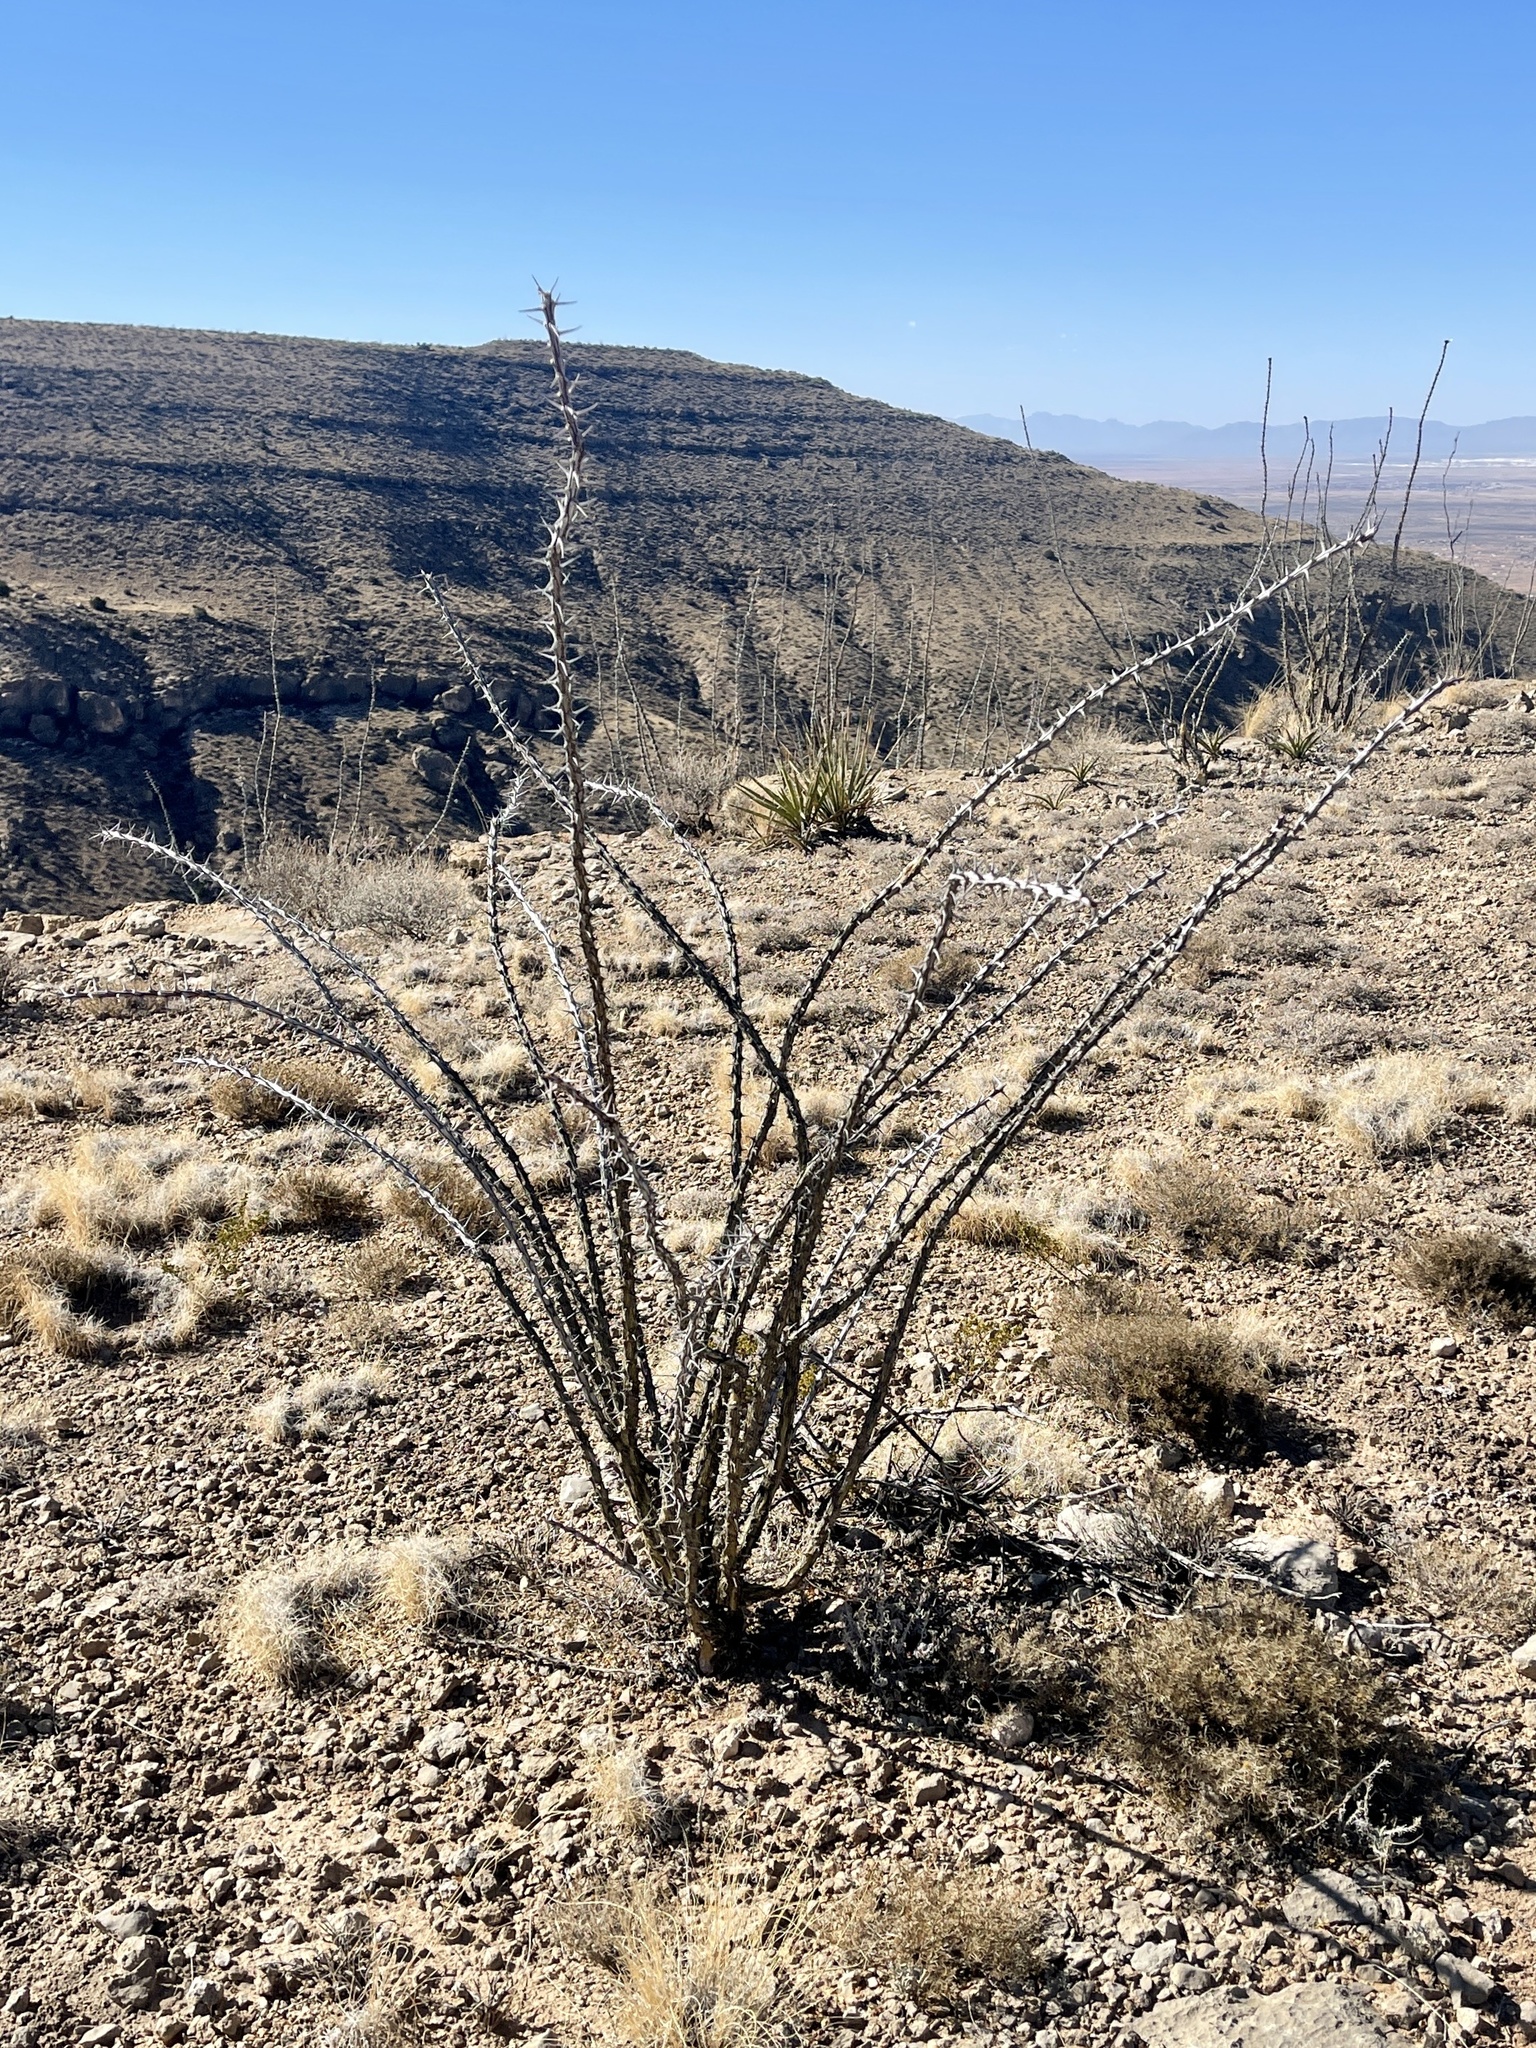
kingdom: Plantae
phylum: Tracheophyta
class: Magnoliopsida
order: Ericales
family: Fouquieriaceae
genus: Fouquieria
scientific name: Fouquieria splendens
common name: Vine-cactus
